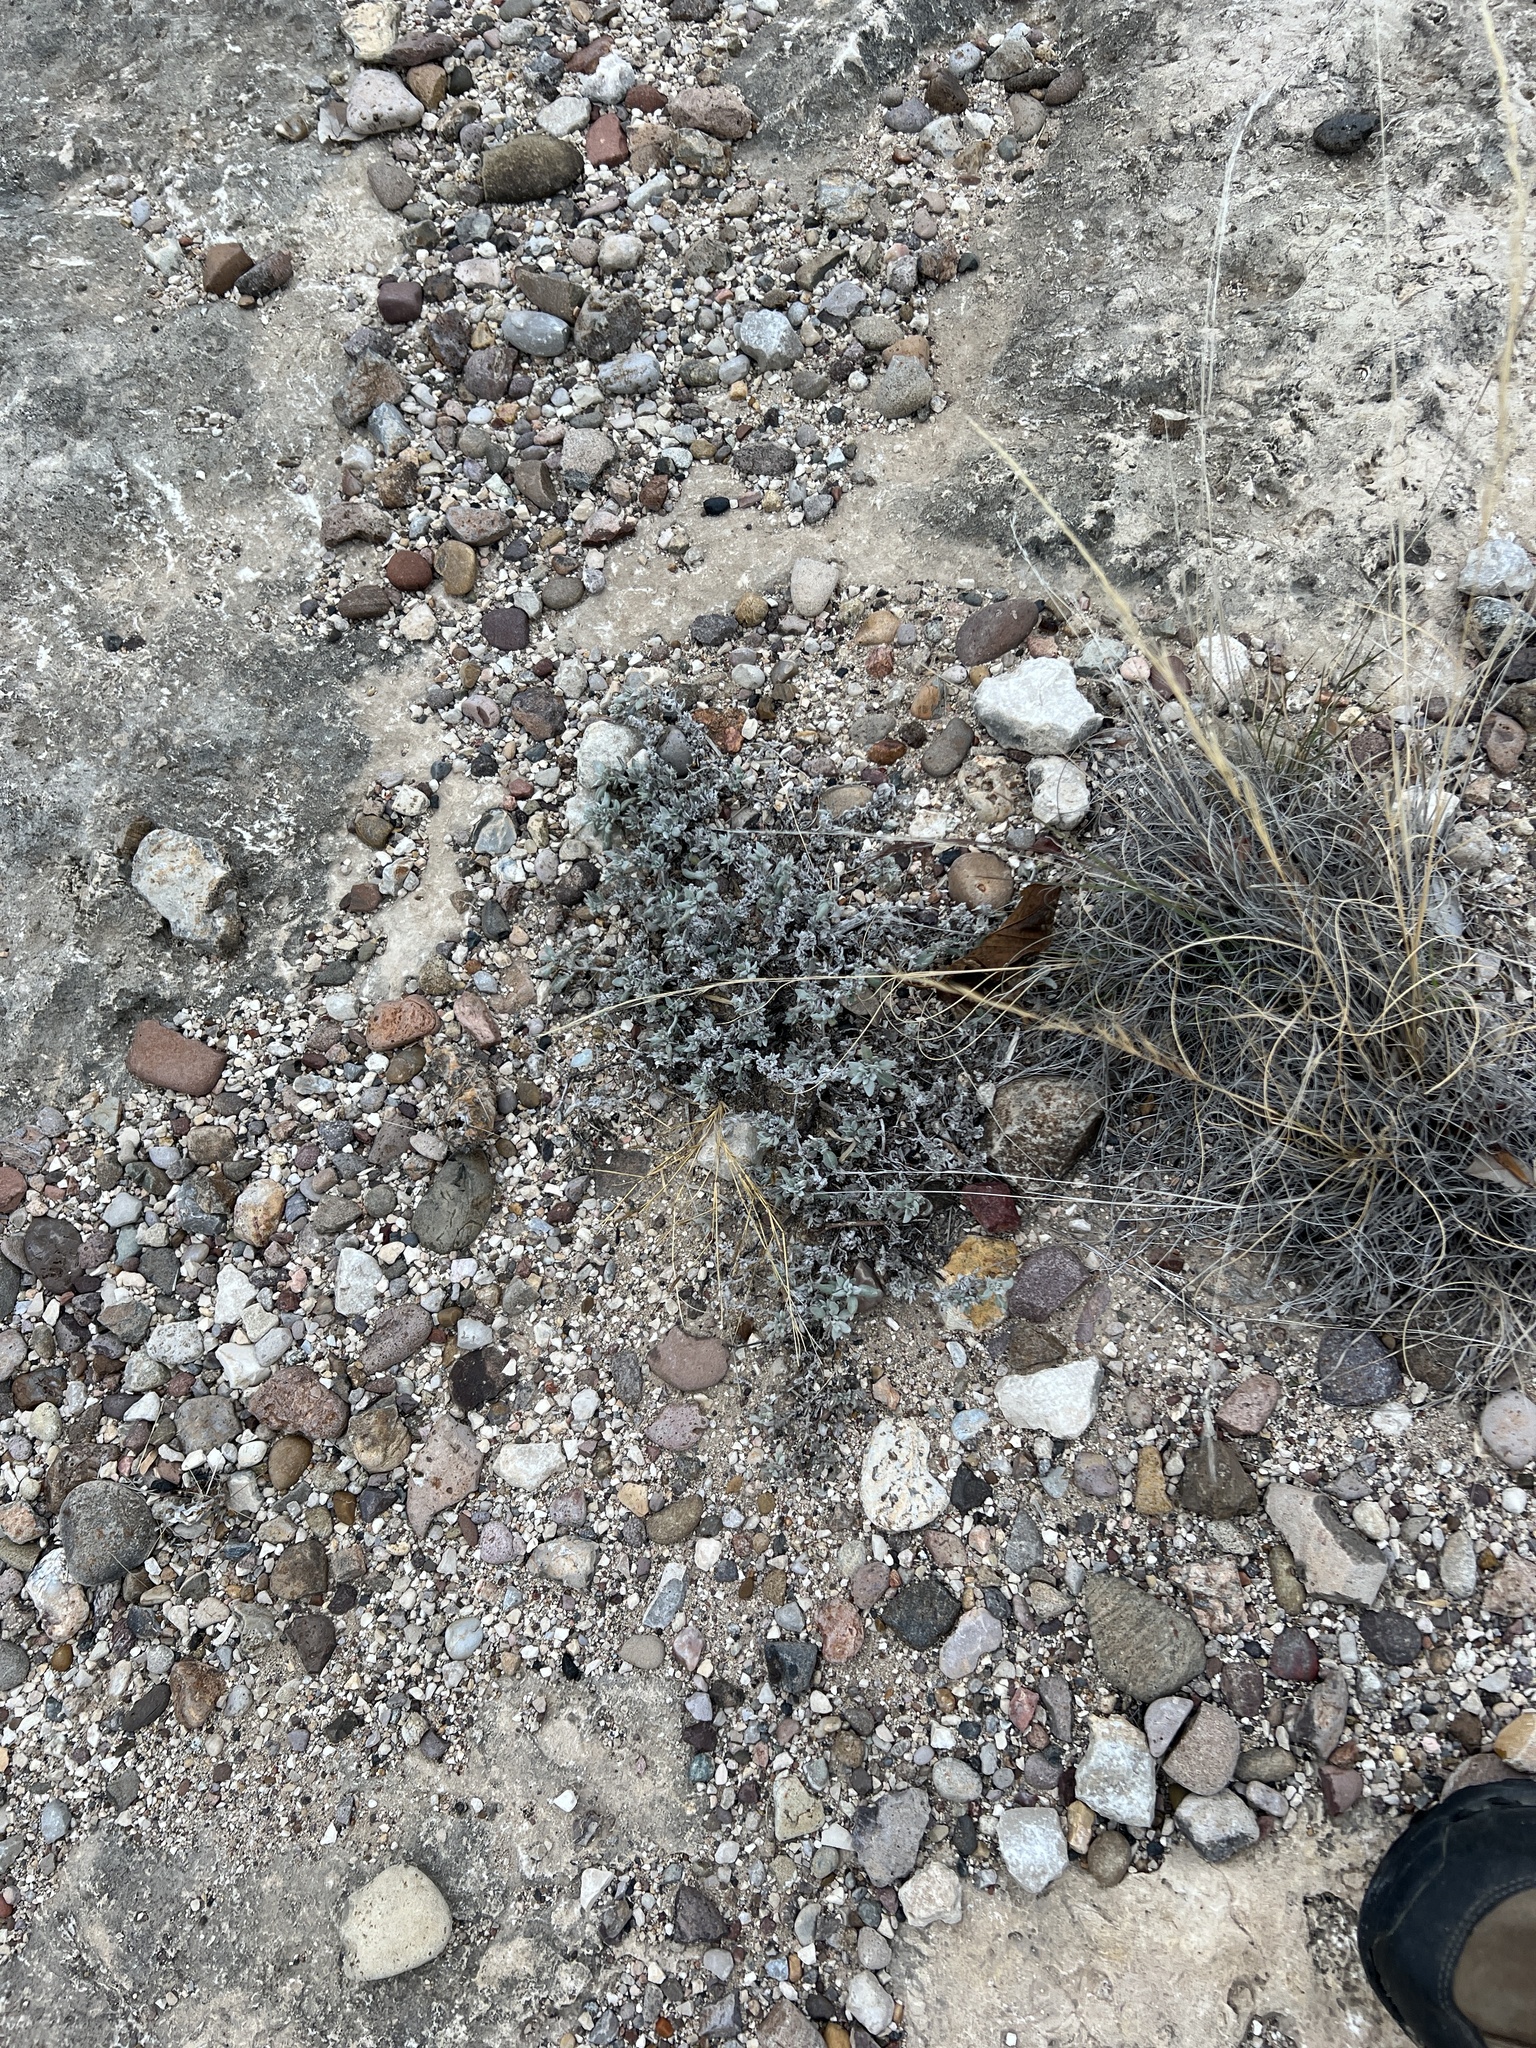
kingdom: Plantae
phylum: Tracheophyta
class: Magnoliopsida
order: Boraginales
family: Ehretiaceae
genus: Tiquilia
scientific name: Tiquilia canescens
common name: Hairy tiquilia
